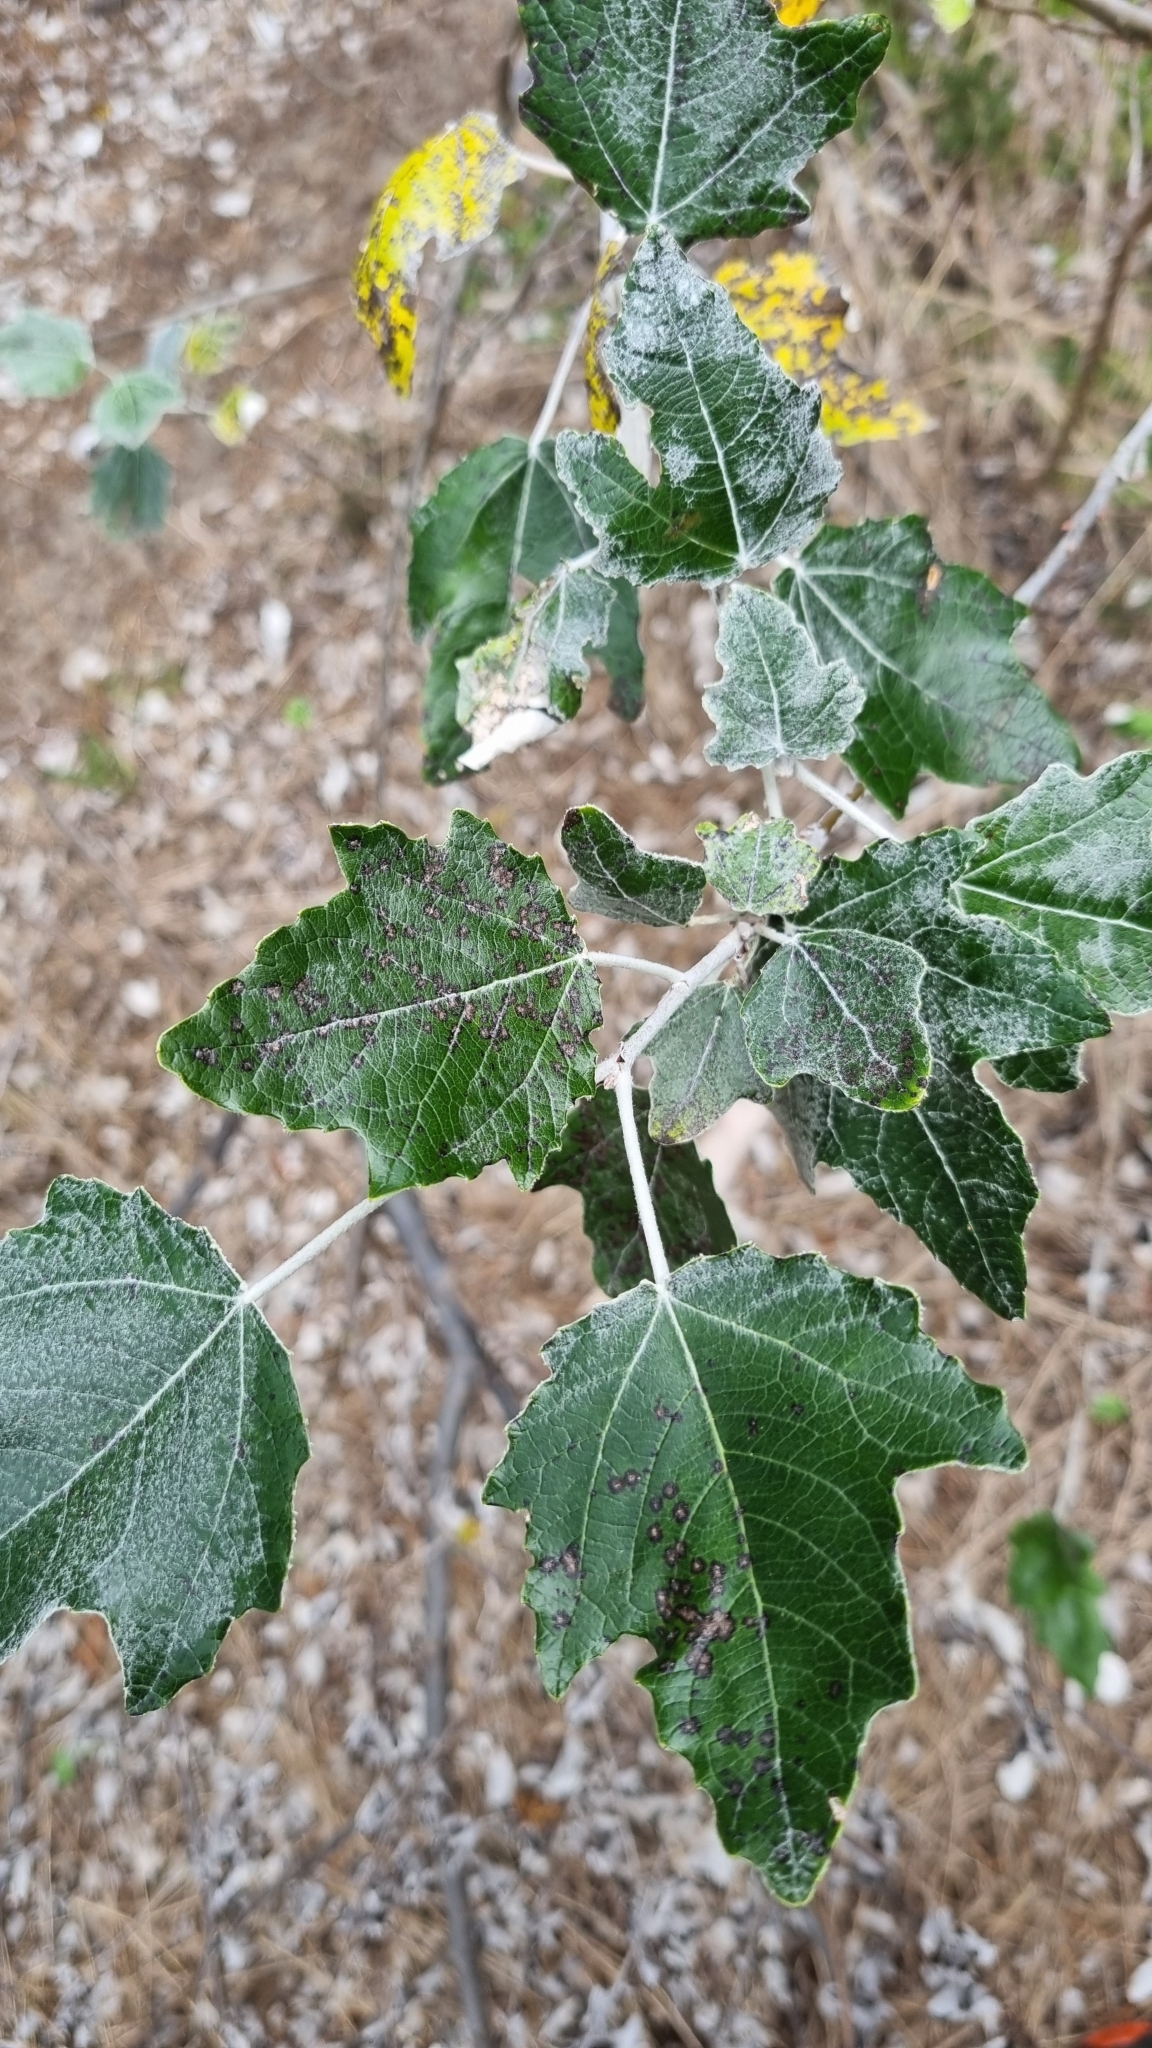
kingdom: Plantae
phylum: Tracheophyta
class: Magnoliopsida
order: Malpighiales
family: Salicaceae
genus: Populus
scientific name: Populus alba
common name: White poplar
